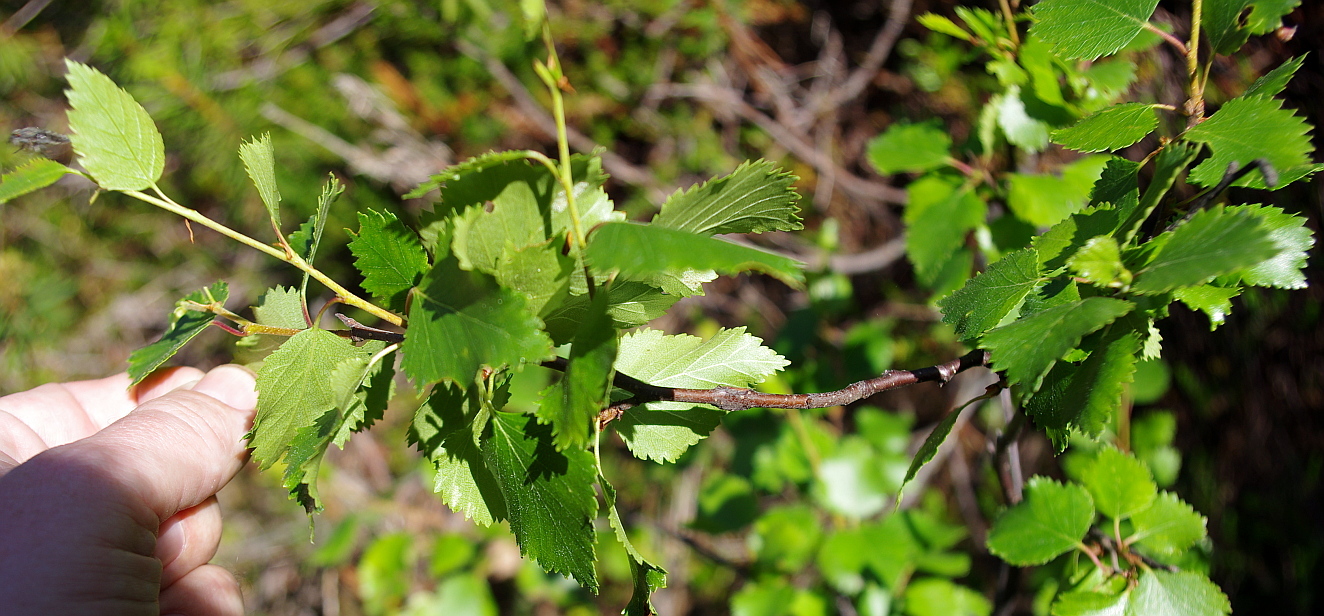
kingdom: Plantae
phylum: Tracheophyta
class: Magnoliopsida
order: Fagales
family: Betulaceae
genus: Betula
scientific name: Betula pendula
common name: Silver birch
